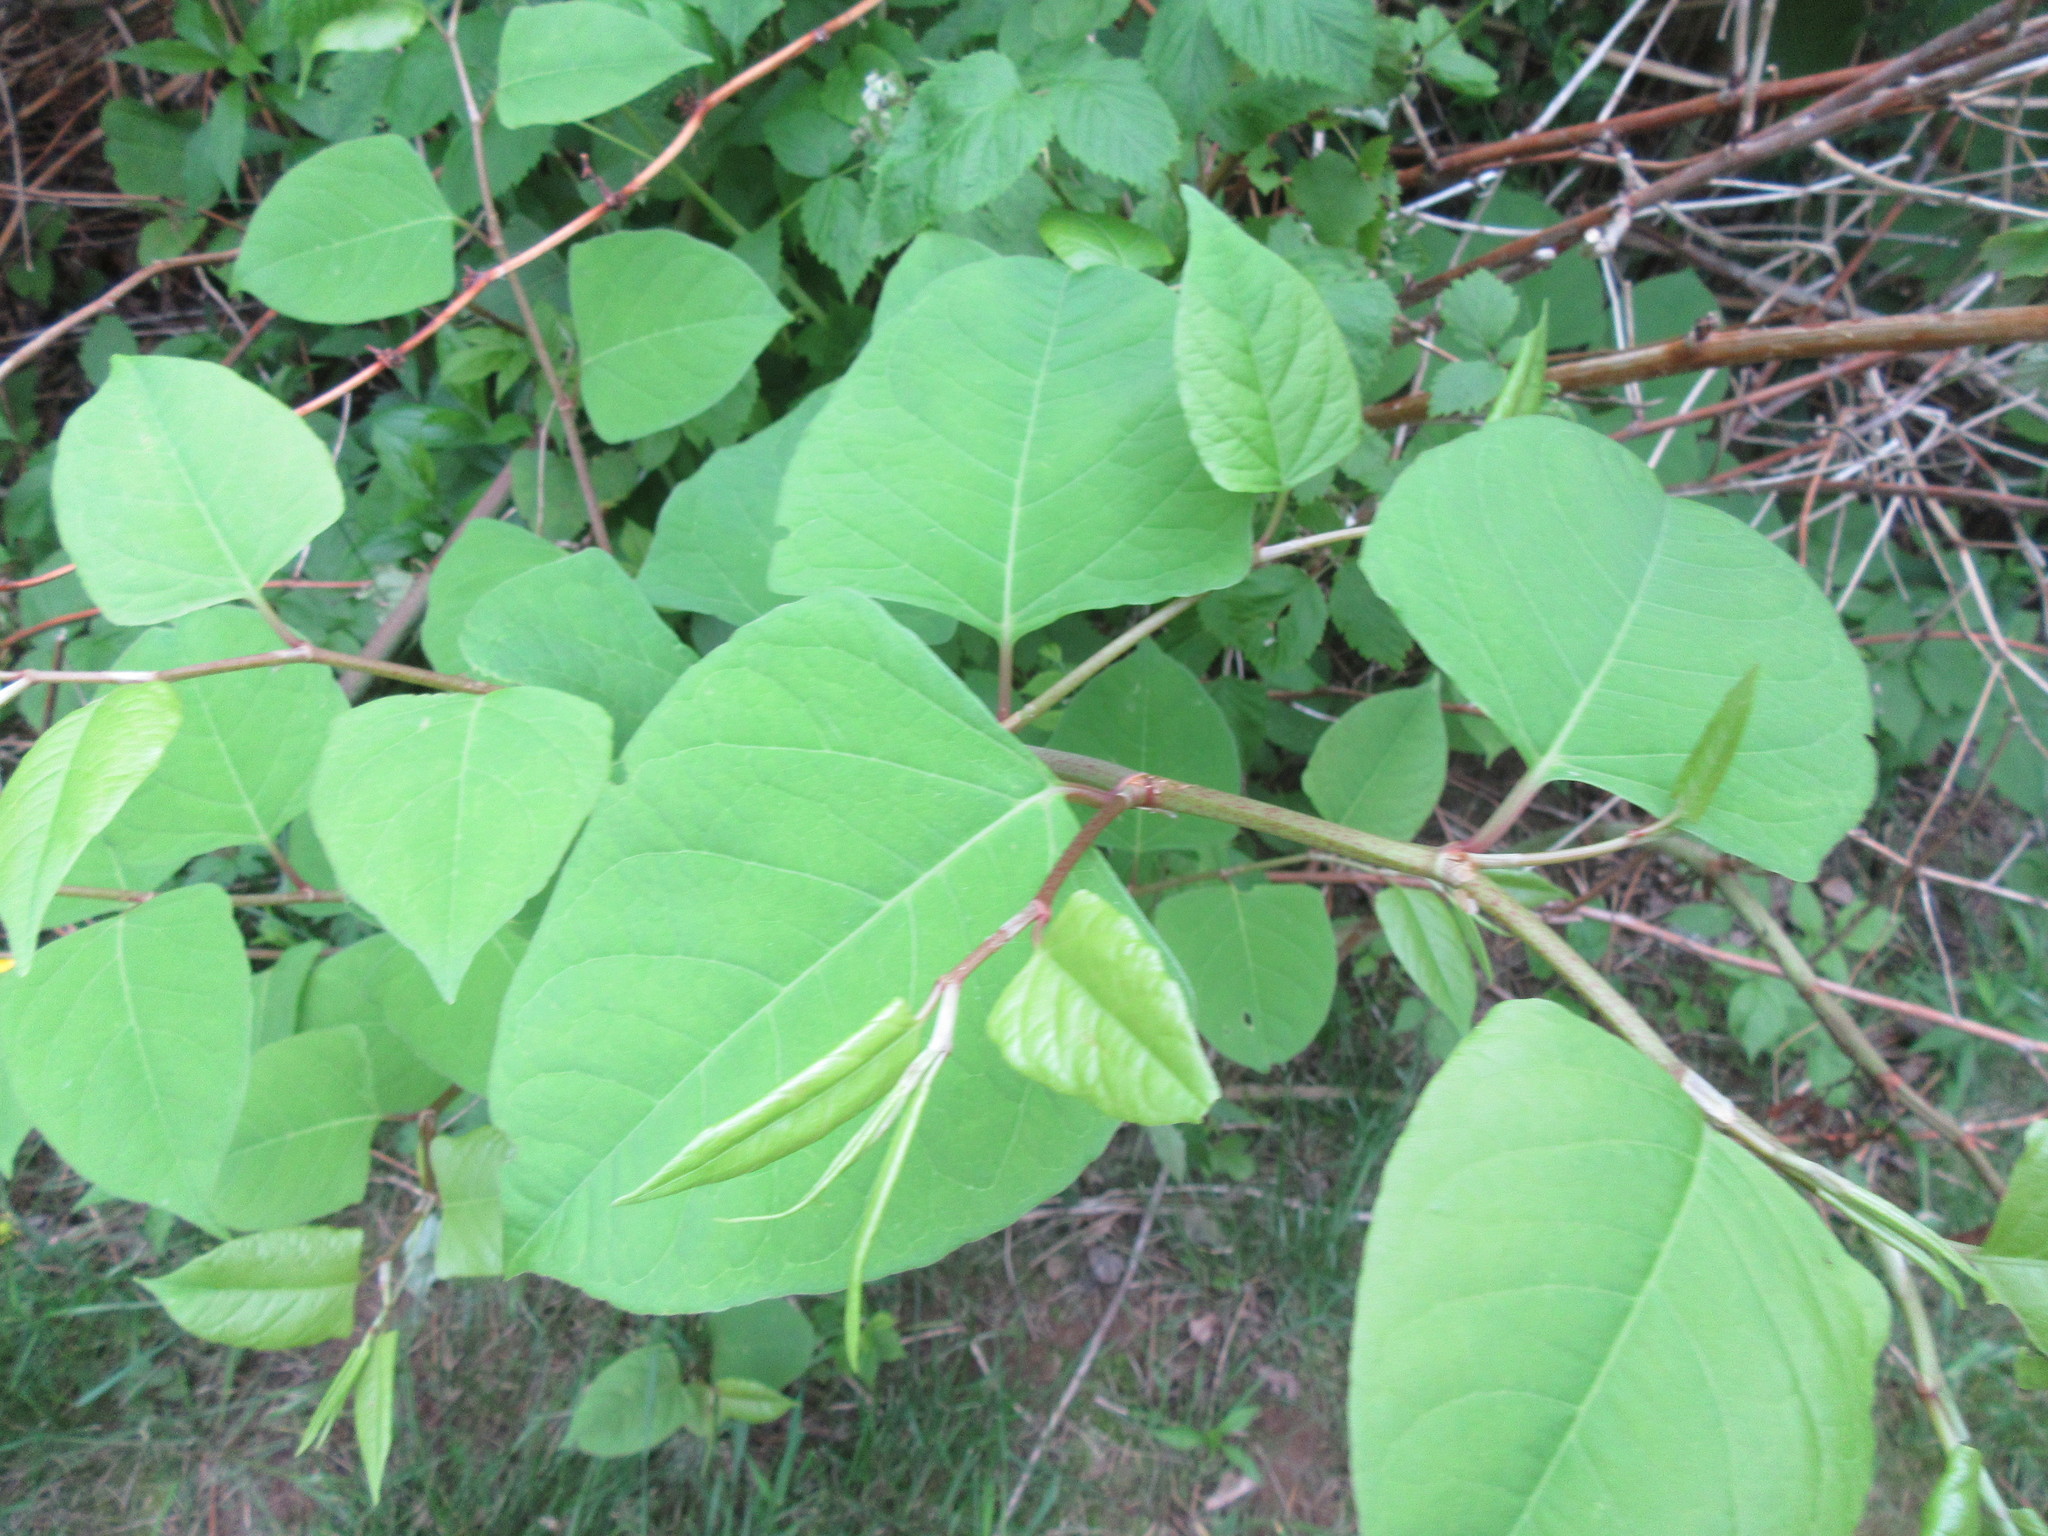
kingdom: Plantae
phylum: Tracheophyta
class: Magnoliopsida
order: Caryophyllales
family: Polygonaceae
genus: Reynoutria
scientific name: Reynoutria japonica
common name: Japanese knotweed
